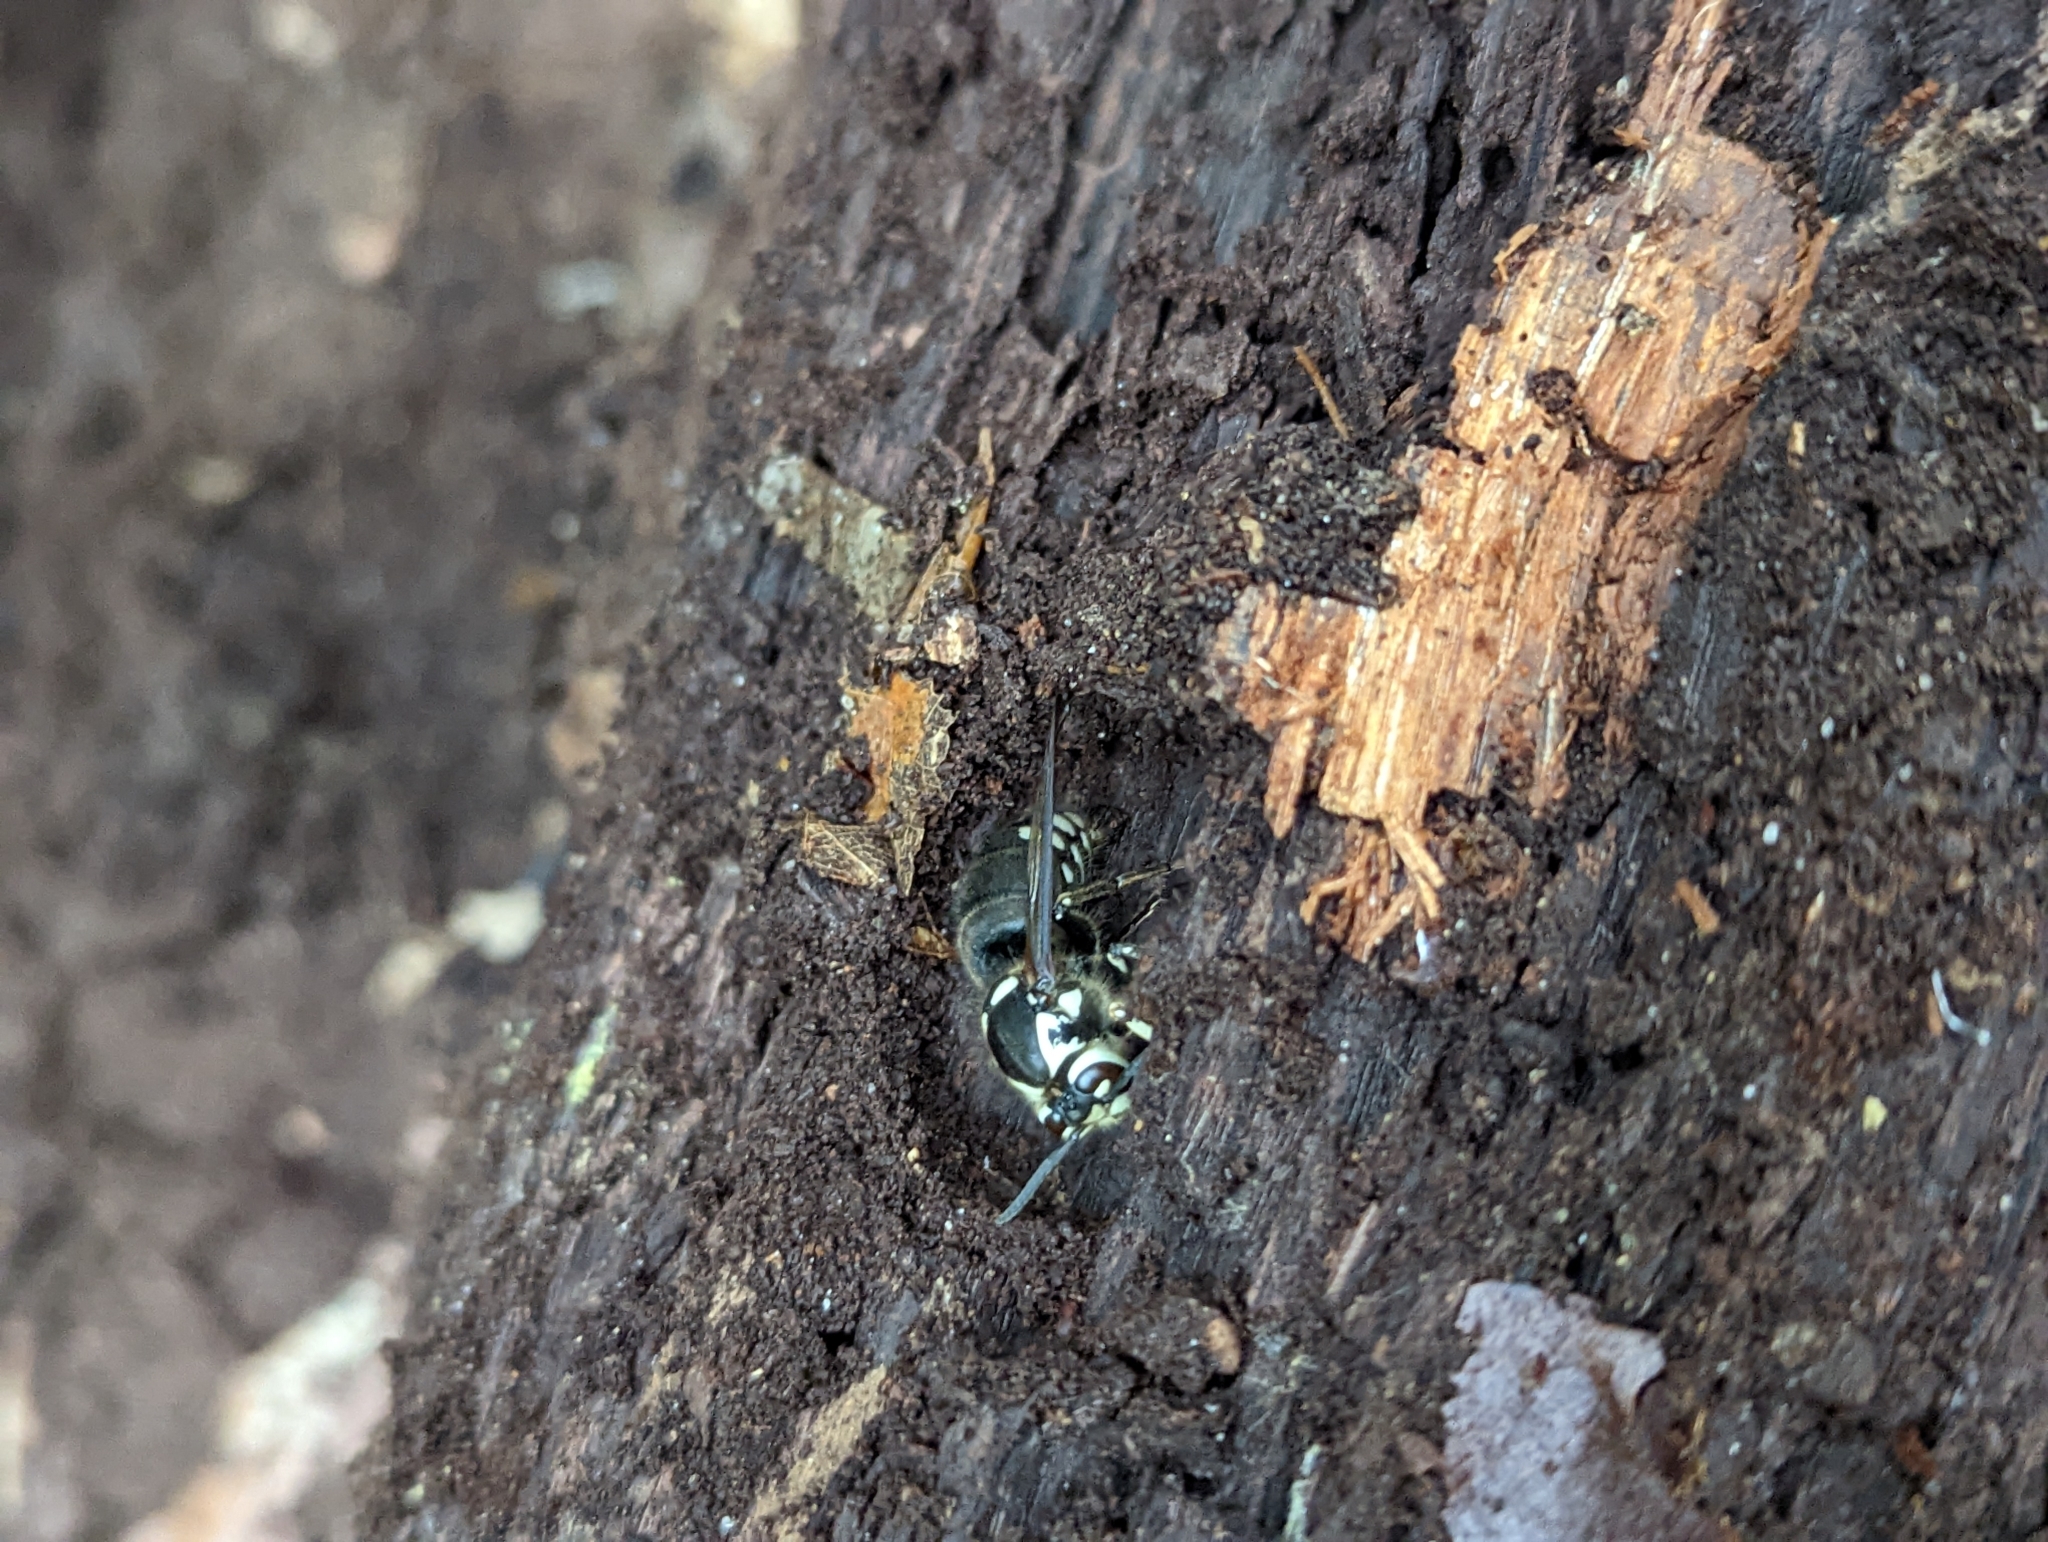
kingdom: Animalia
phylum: Arthropoda
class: Insecta
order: Hymenoptera
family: Vespidae
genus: Dolichovespula
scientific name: Dolichovespula maculata
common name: Bald-faced hornet
